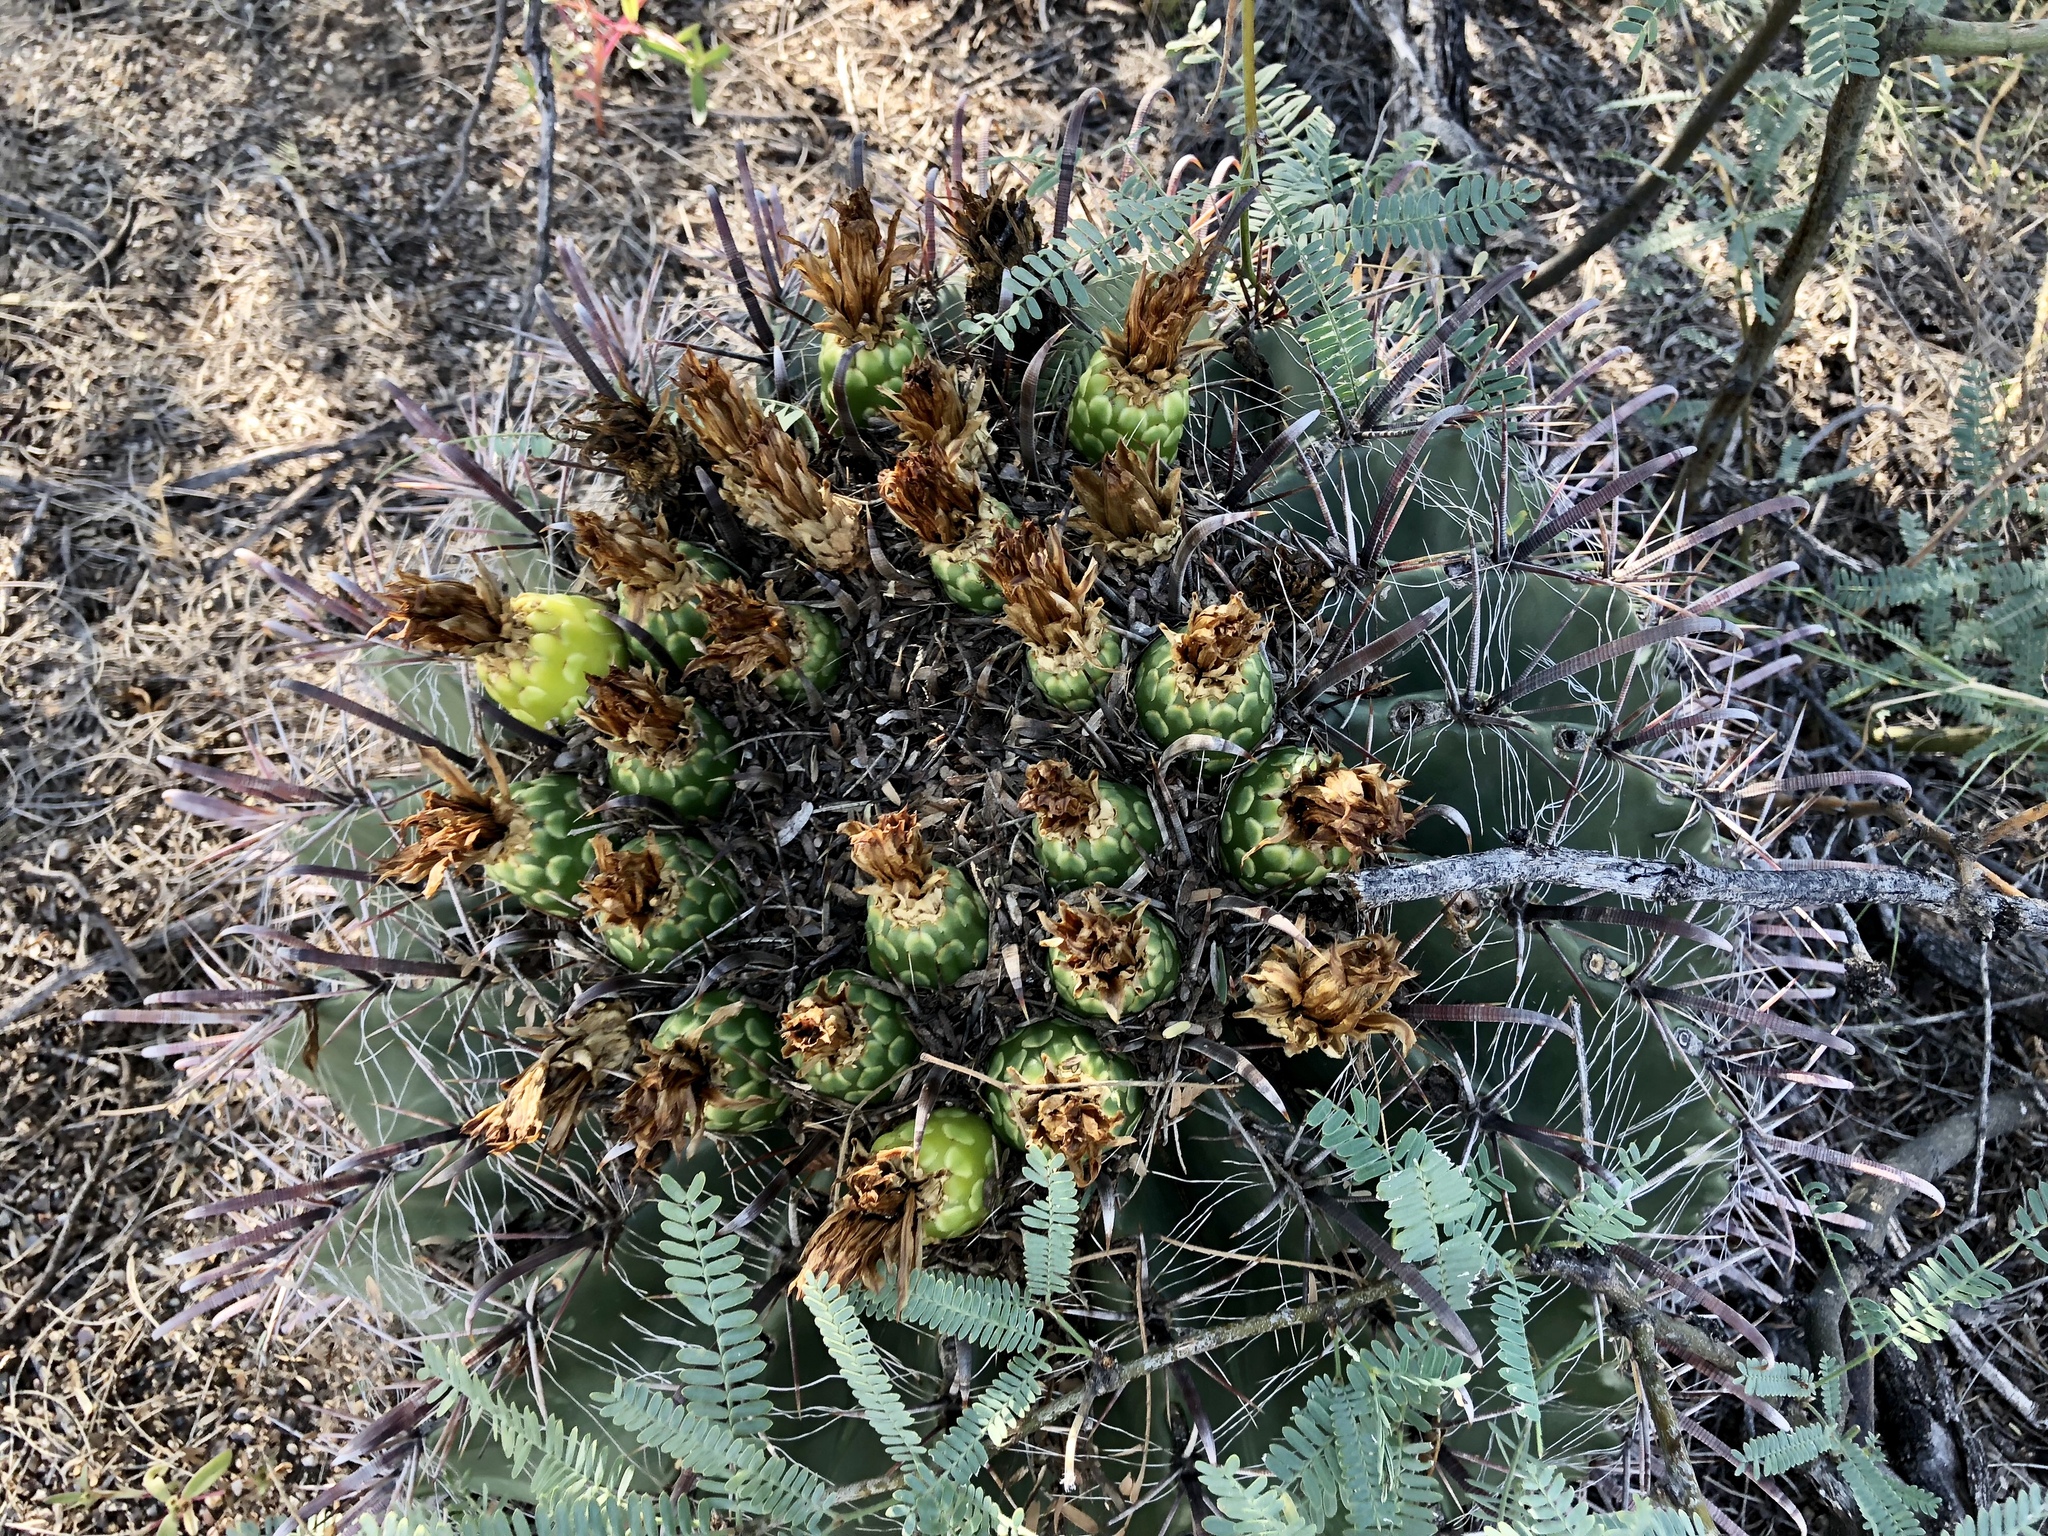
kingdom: Plantae
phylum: Tracheophyta
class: Magnoliopsida
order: Caryophyllales
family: Cactaceae
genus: Ferocactus
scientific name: Ferocactus wislizeni
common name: Candy barrel cactus
